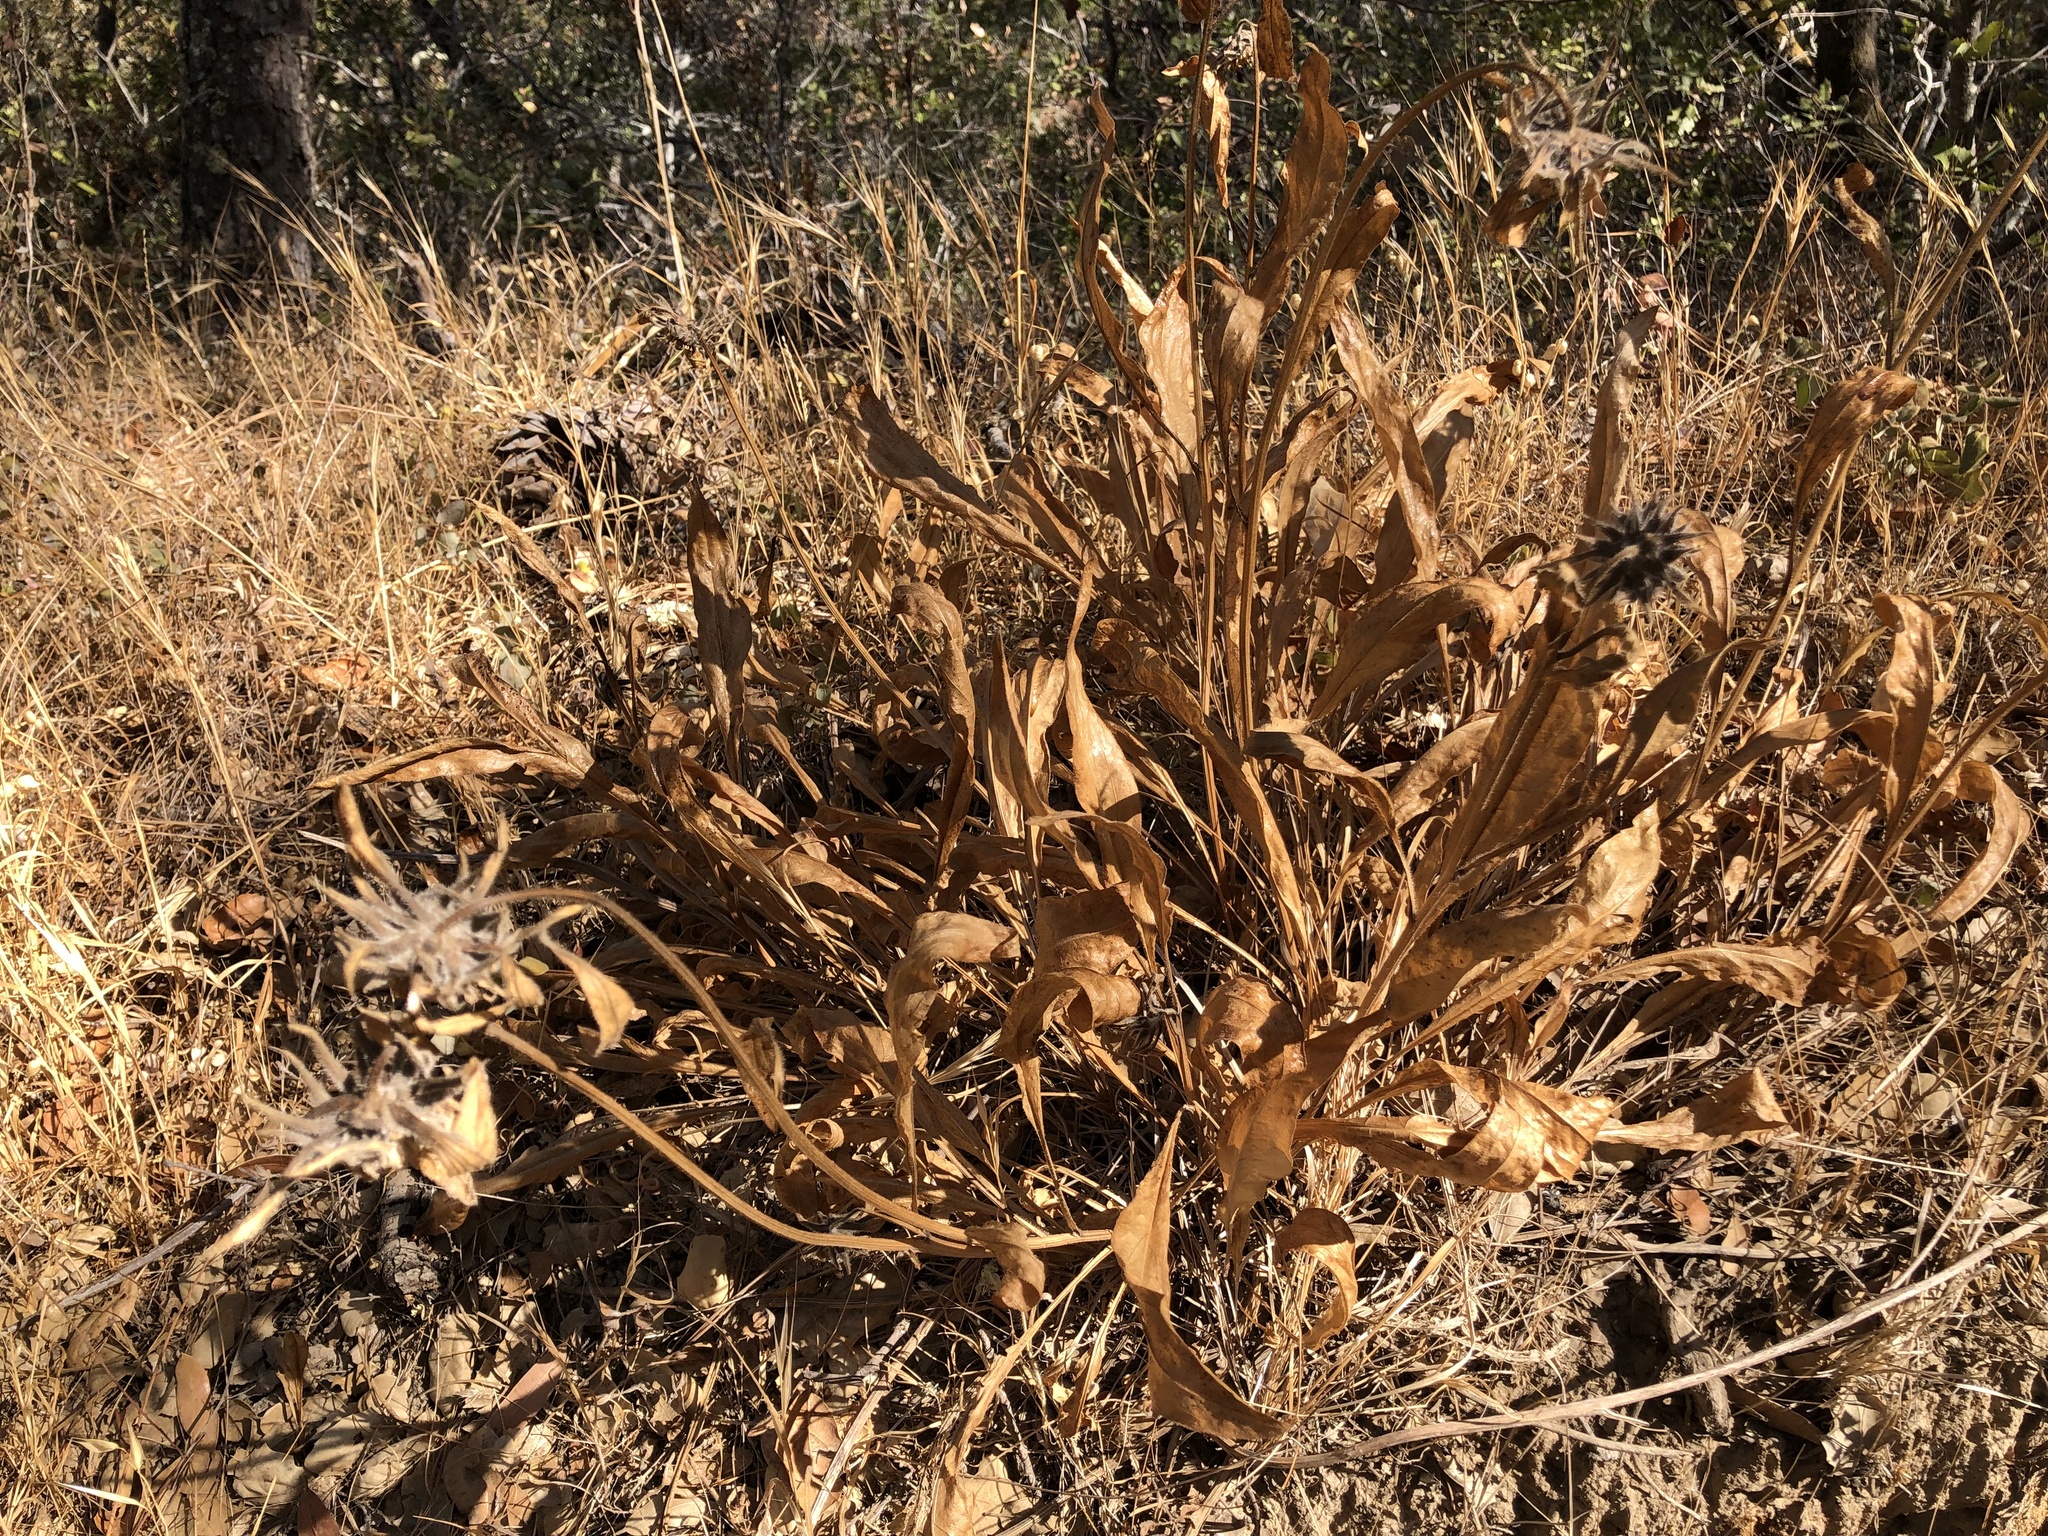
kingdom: Plantae
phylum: Tracheophyta
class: Magnoliopsida
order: Asterales
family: Asteraceae
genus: Helianthella
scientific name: Helianthella castanea
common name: Diablo helianthella
